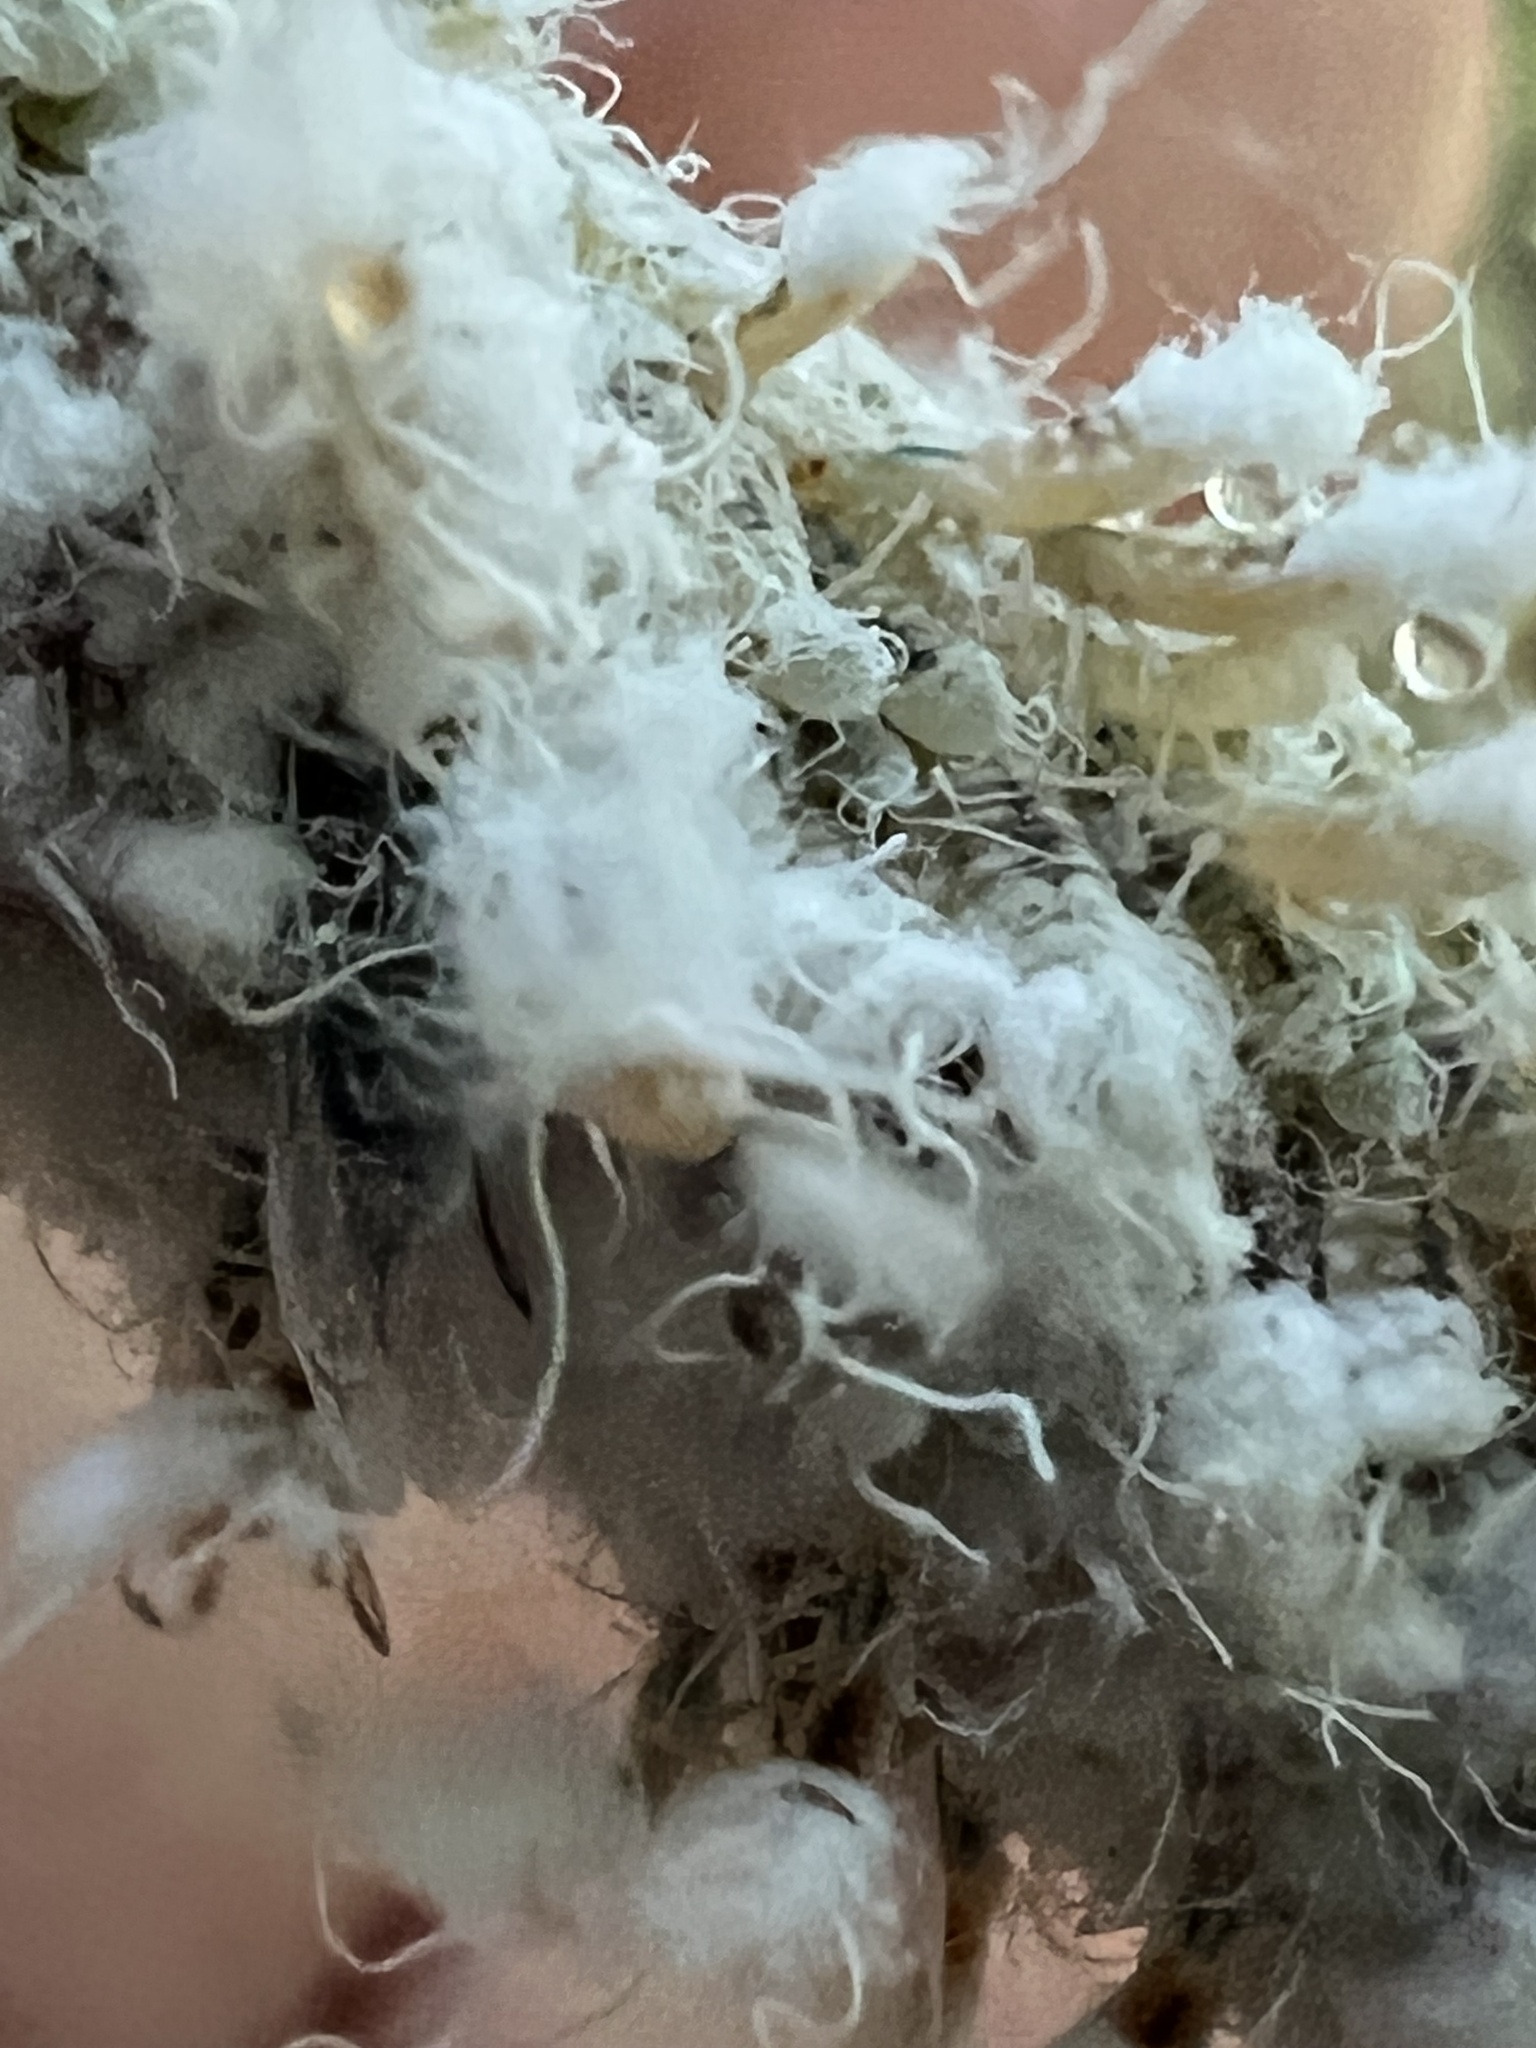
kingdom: Animalia
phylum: Arthropoda
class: Insecta
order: Hemiptera
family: Aphididae
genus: Grylloprociphilus
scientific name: Grylloprociphilus imbricator
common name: Beech blight aphid
